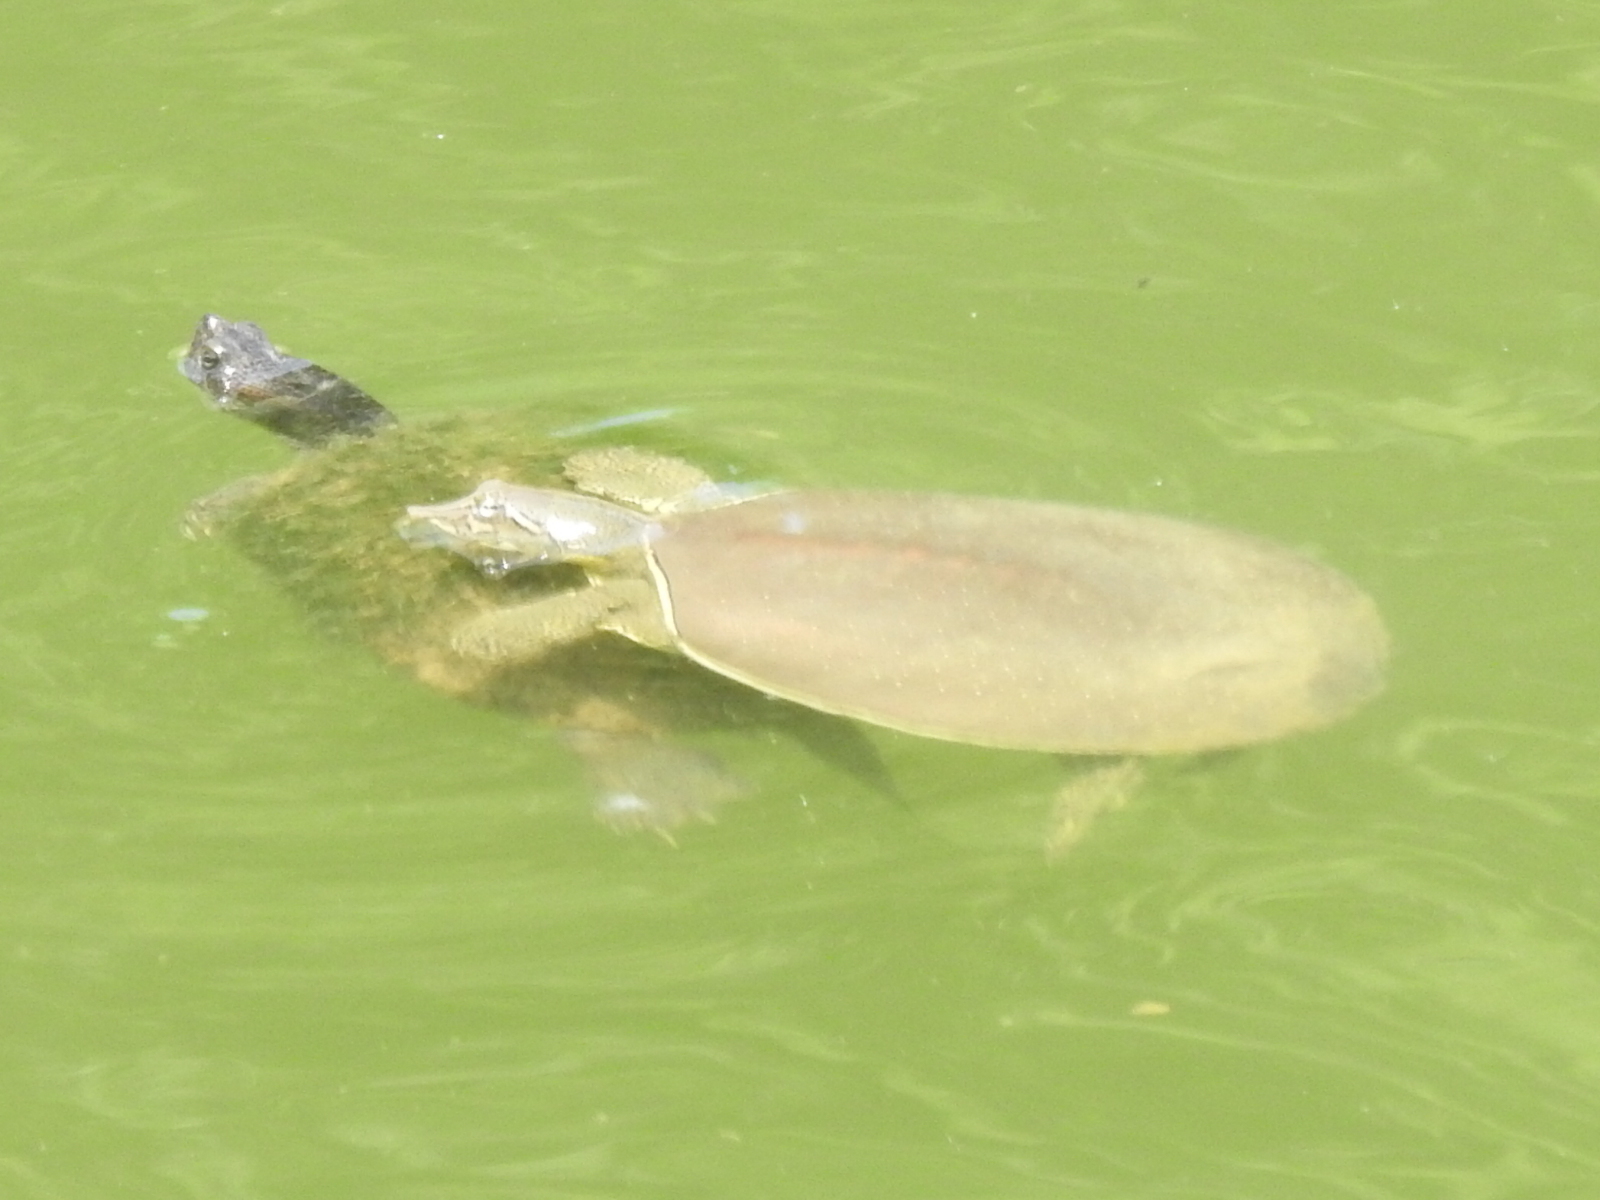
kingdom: Animalia
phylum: Chordata
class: Testudines
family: Trionychidae
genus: Apalone
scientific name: Apalone spinifera
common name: Spiny softshell turtle
